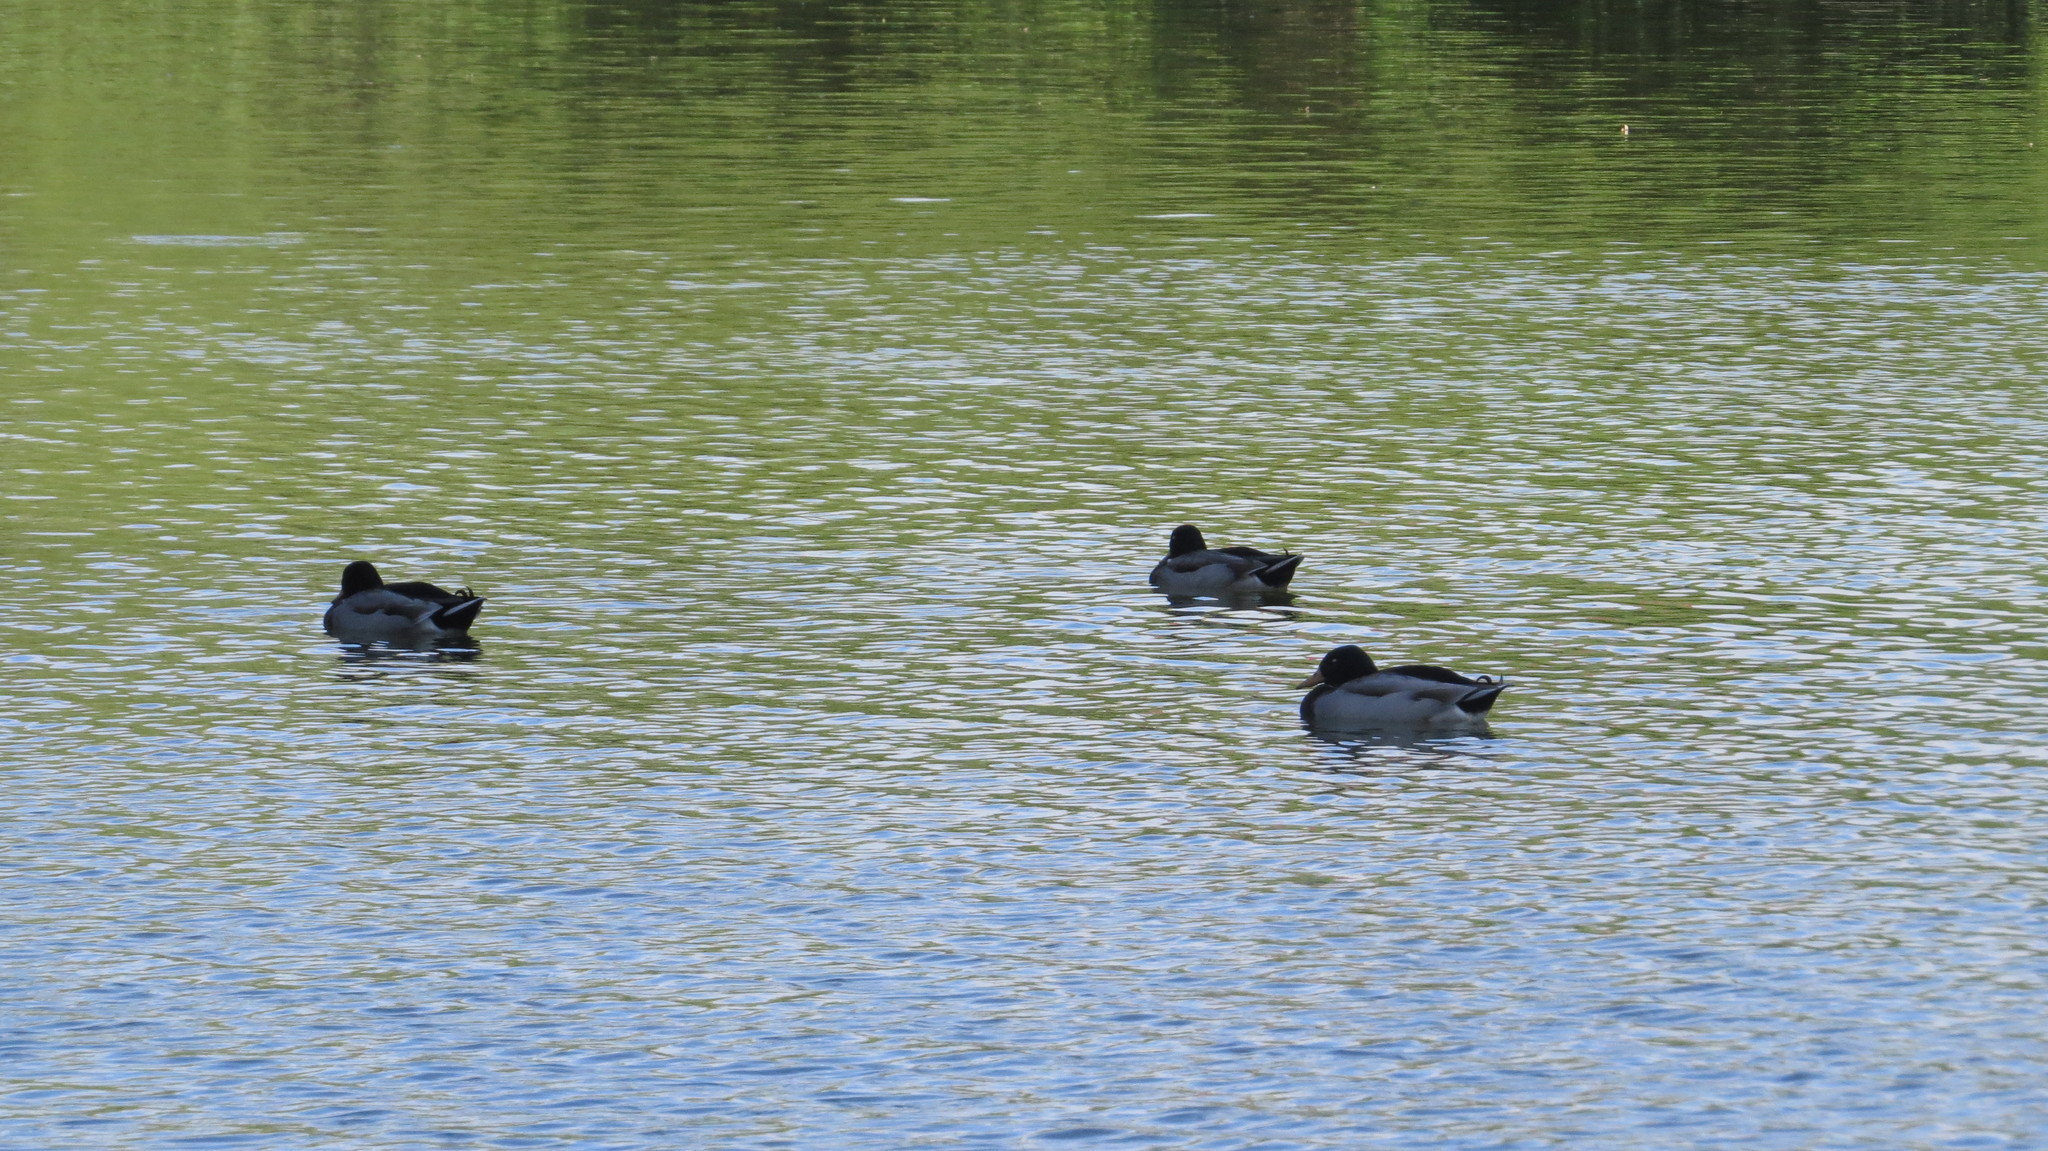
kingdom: Animalia
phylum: Chordata
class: Aves
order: Anseriformes
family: Anatidae
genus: Anas
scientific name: Anas platyrhynchos
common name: Mallard
